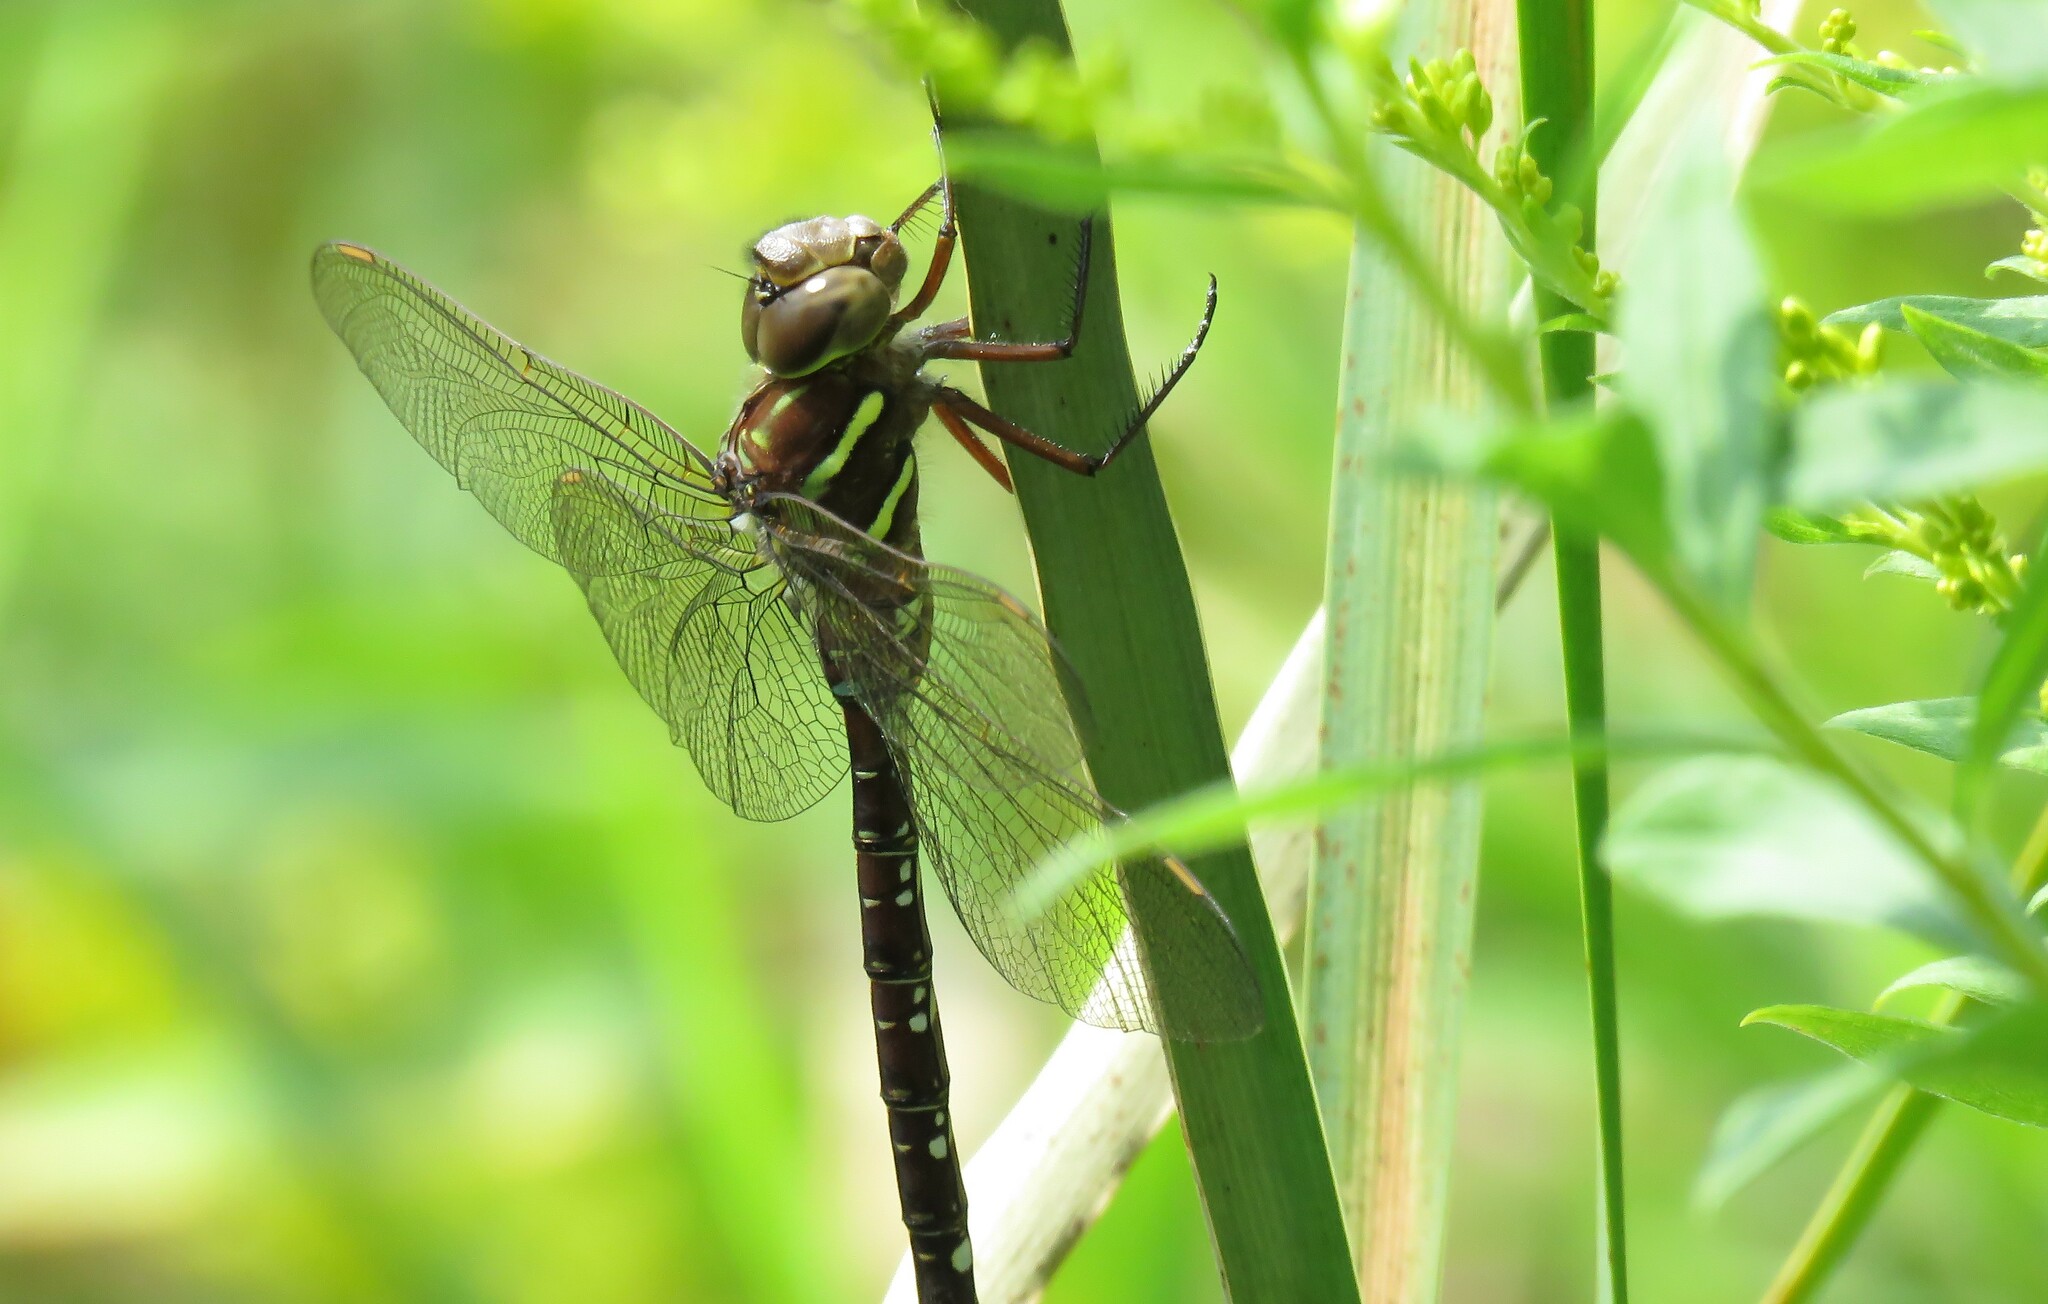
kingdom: Animalia
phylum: Arthropoda
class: Insecta
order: Odonata
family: Aeshnidae
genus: Aeshna
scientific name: Aeshna umbrosa
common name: Shadow darner
